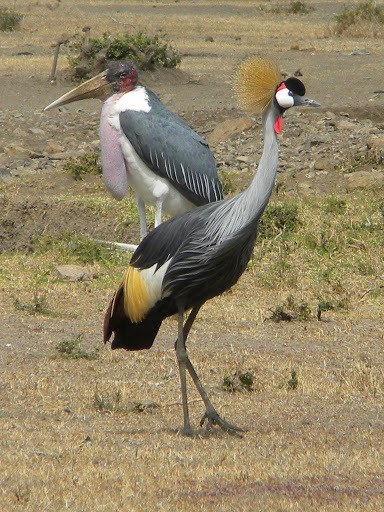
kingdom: Animalia
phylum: Chordata
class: Aves
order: Gruiformes
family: Gruidae
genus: Balearica
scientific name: Balearica regulorum
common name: Grey crowned crane
